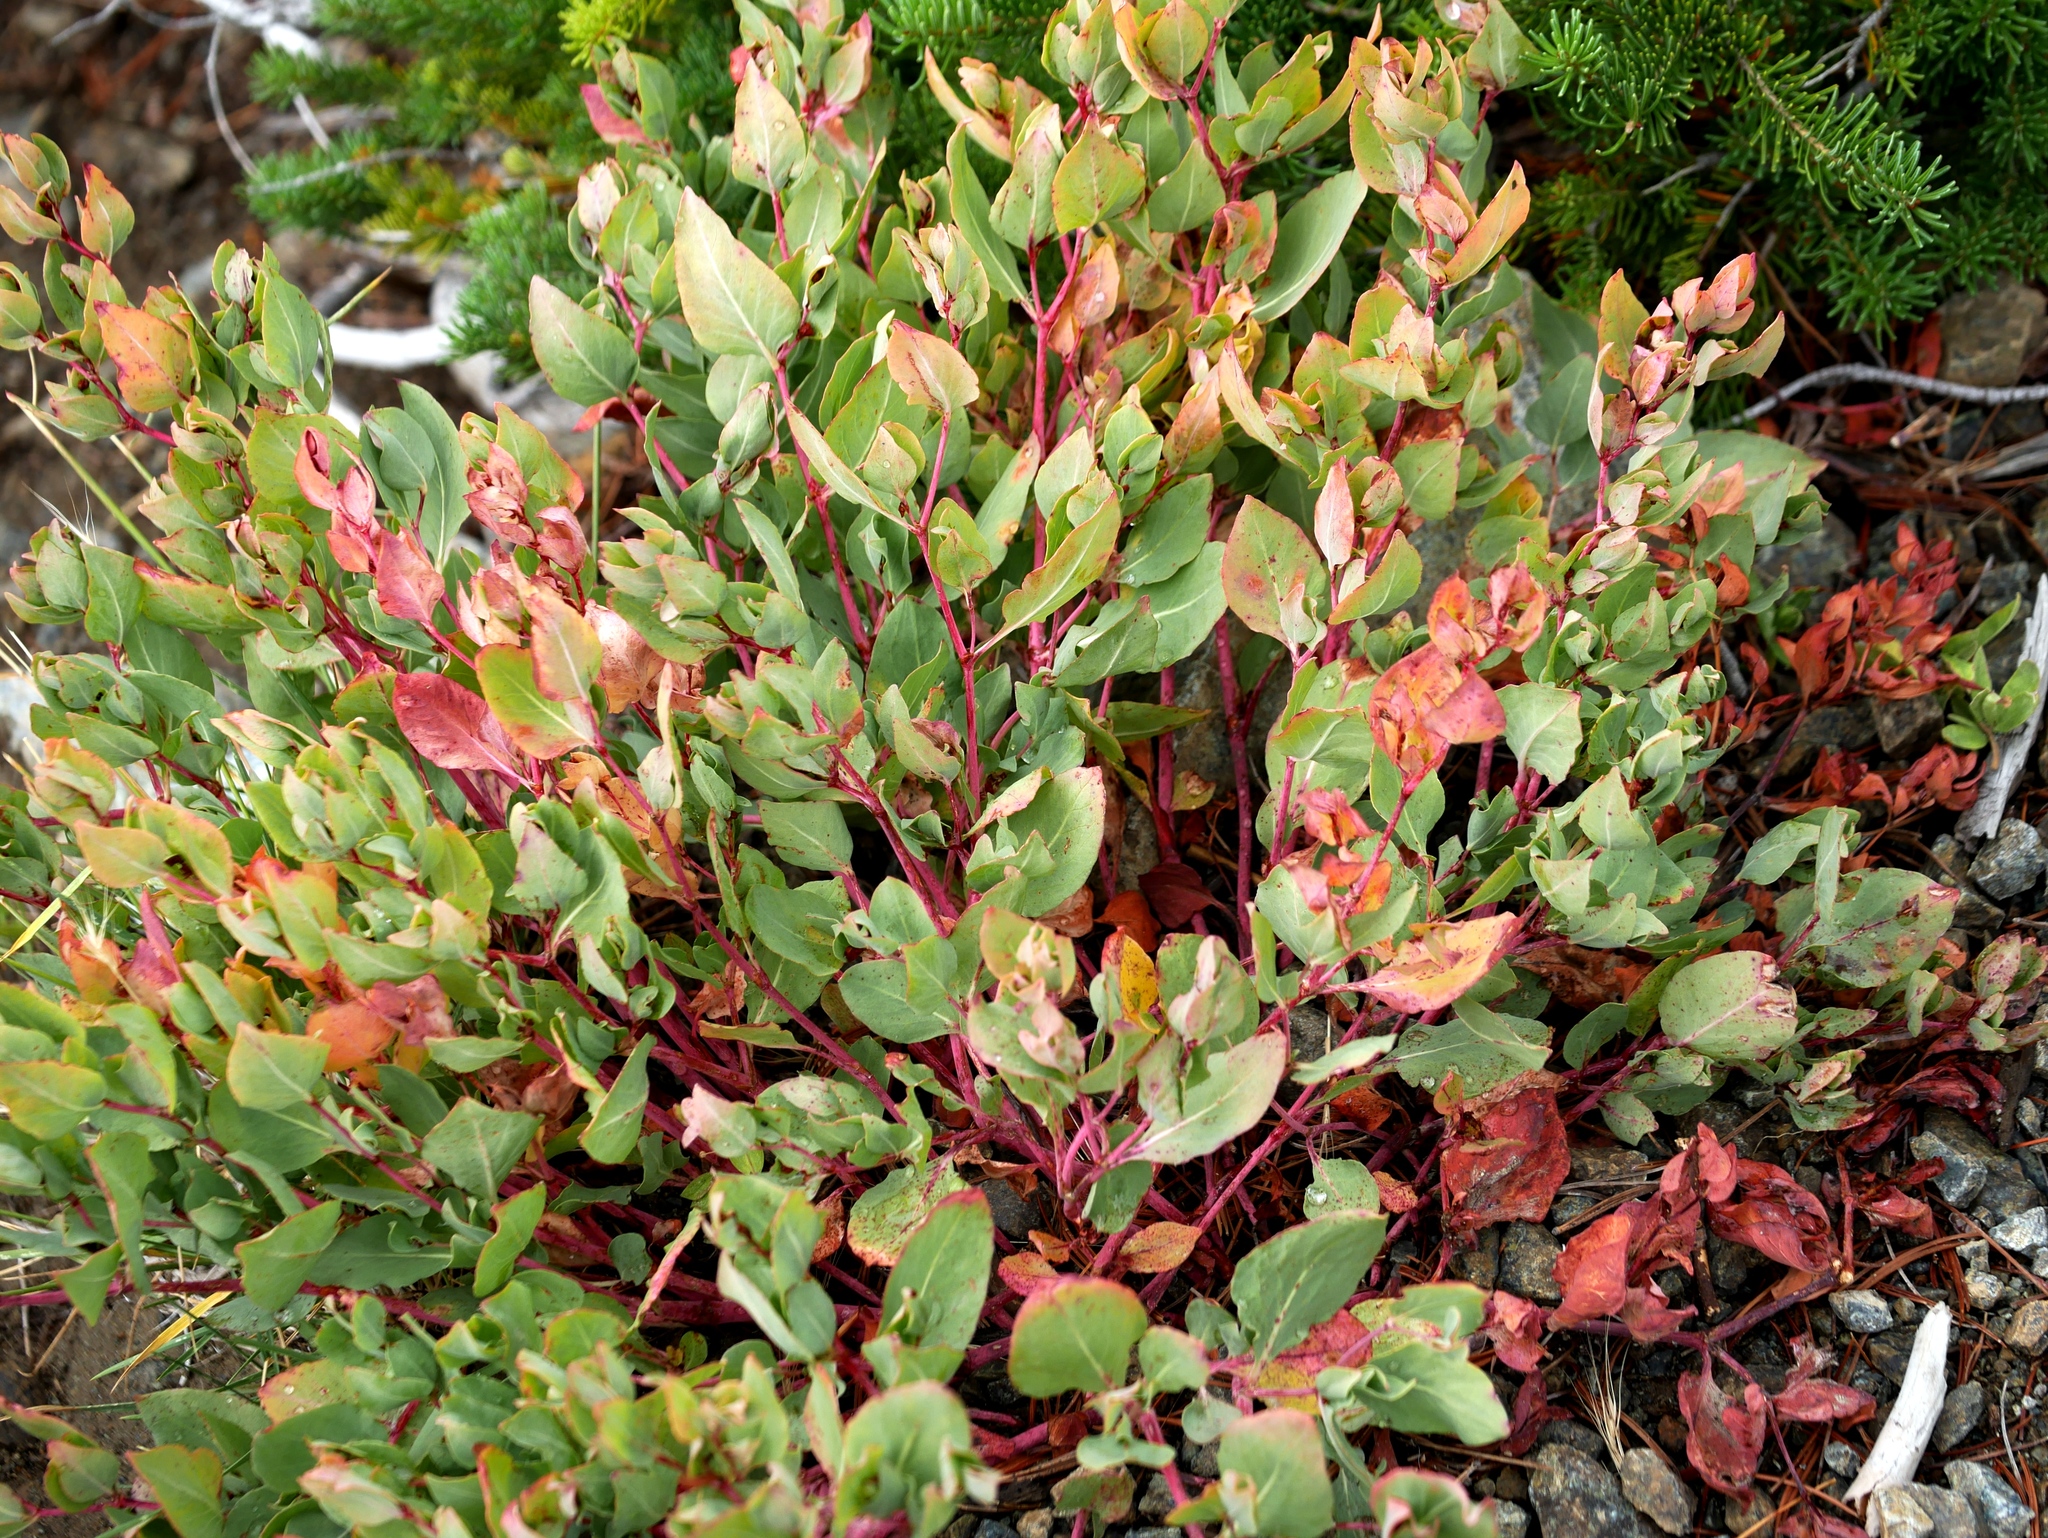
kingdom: Plantae
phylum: Tracheophyta
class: Magnoliopsida
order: Caryophyllales
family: Polygonaceae
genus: Koenigia
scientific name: Koenigia davisiae
